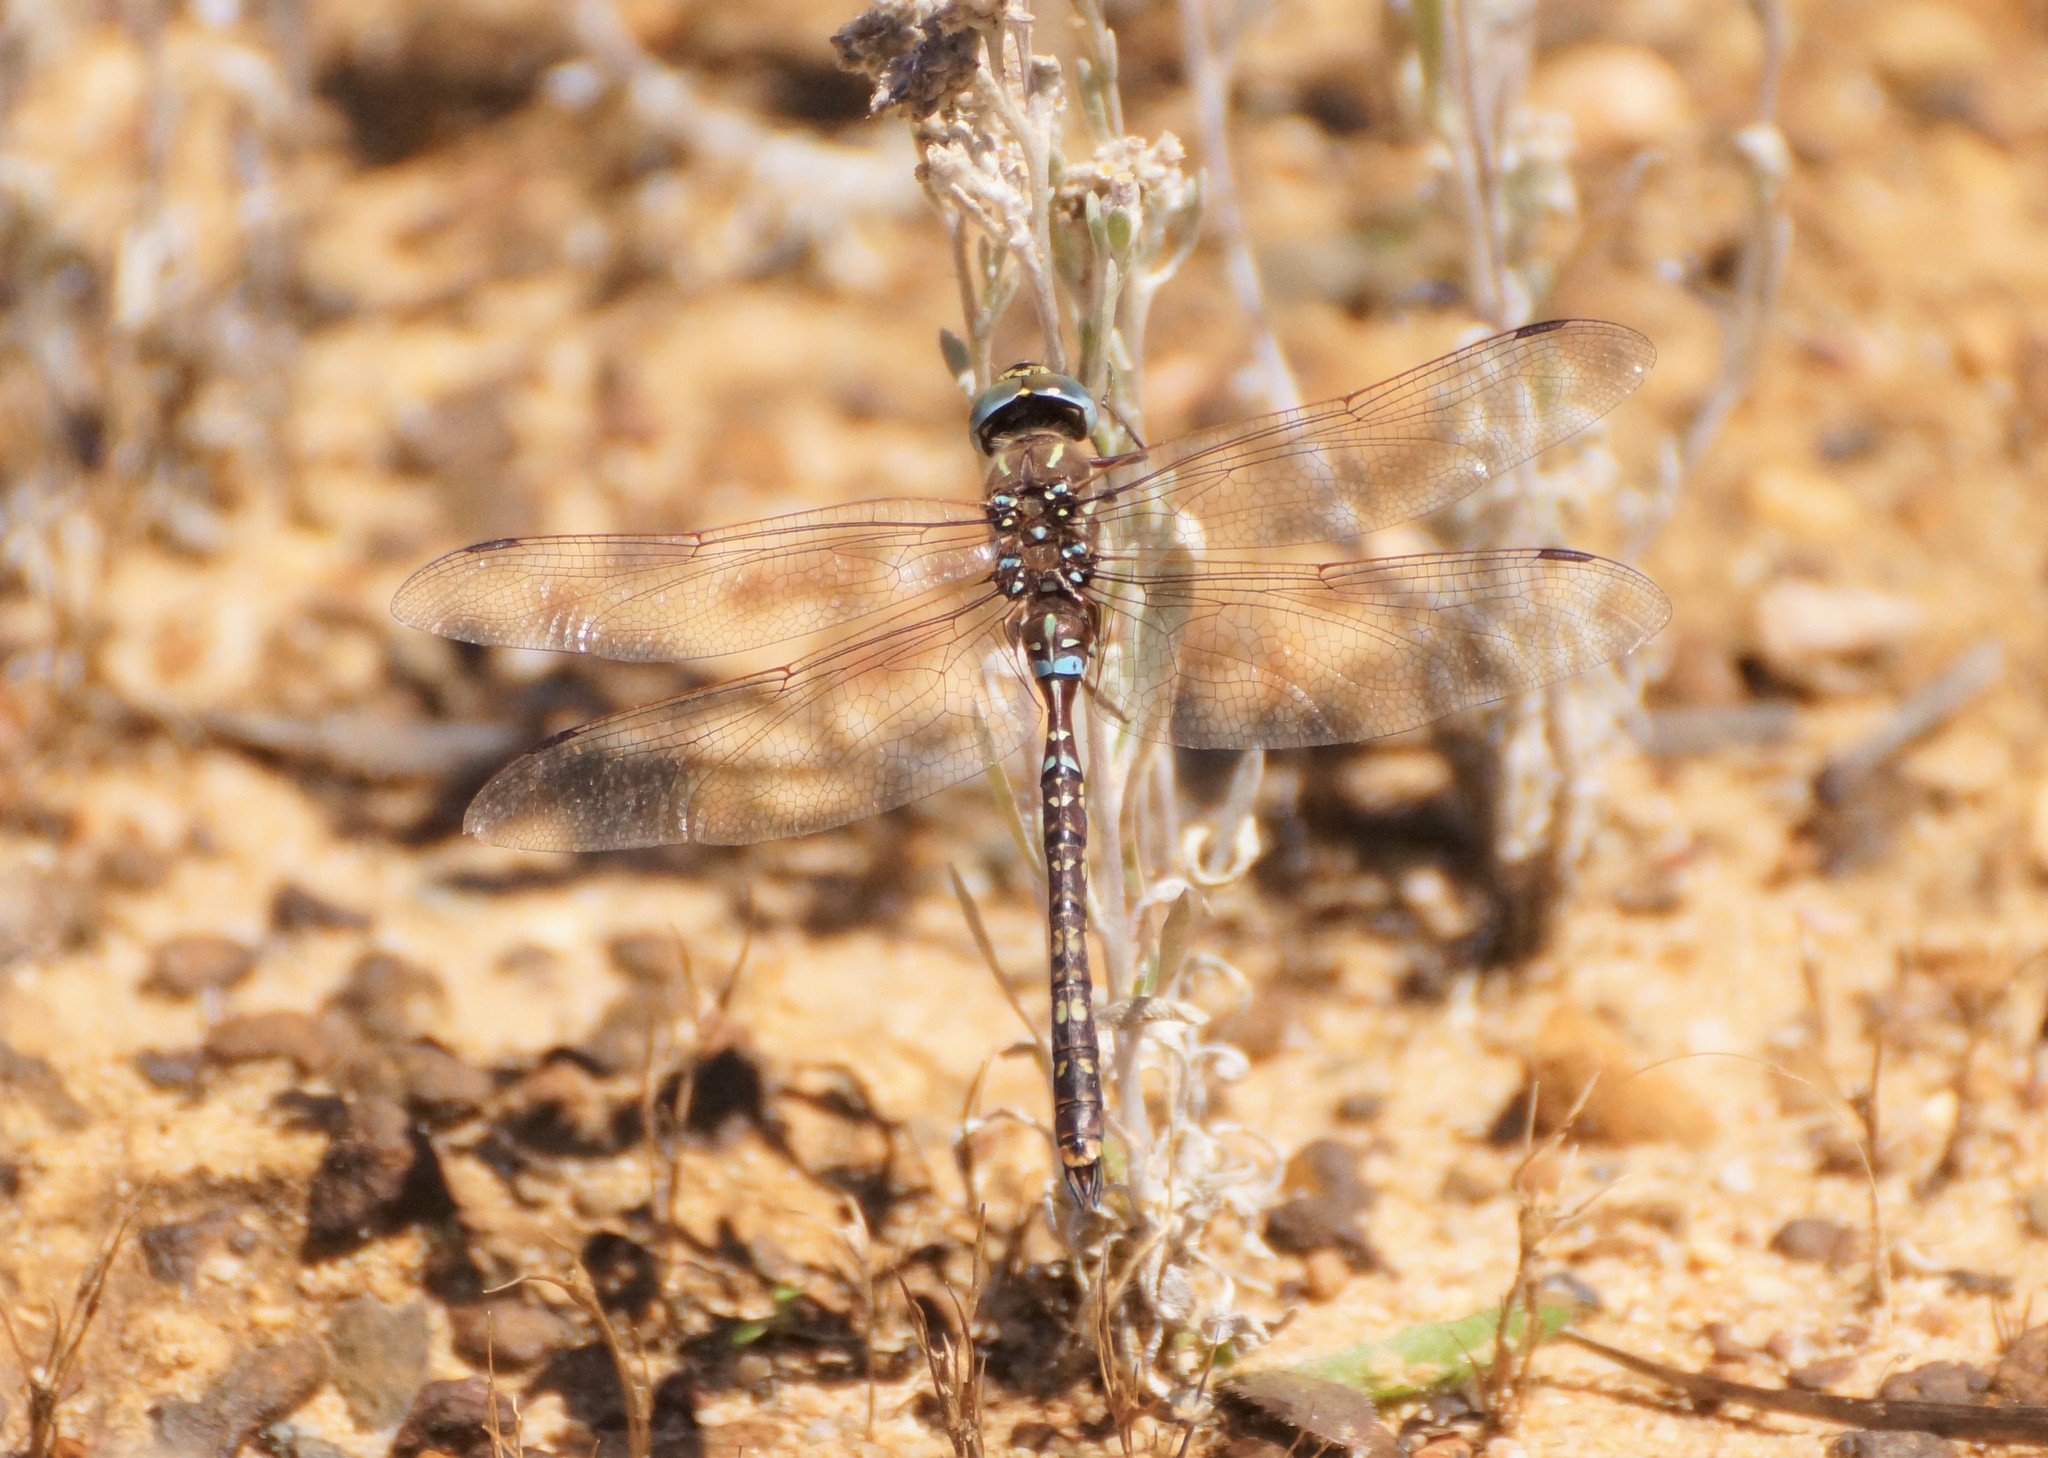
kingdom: Animalia
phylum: Arthropoda
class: Insecta
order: Odonata
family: Aeshnidae
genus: Aeshna
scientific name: Aeshna brevistyla
